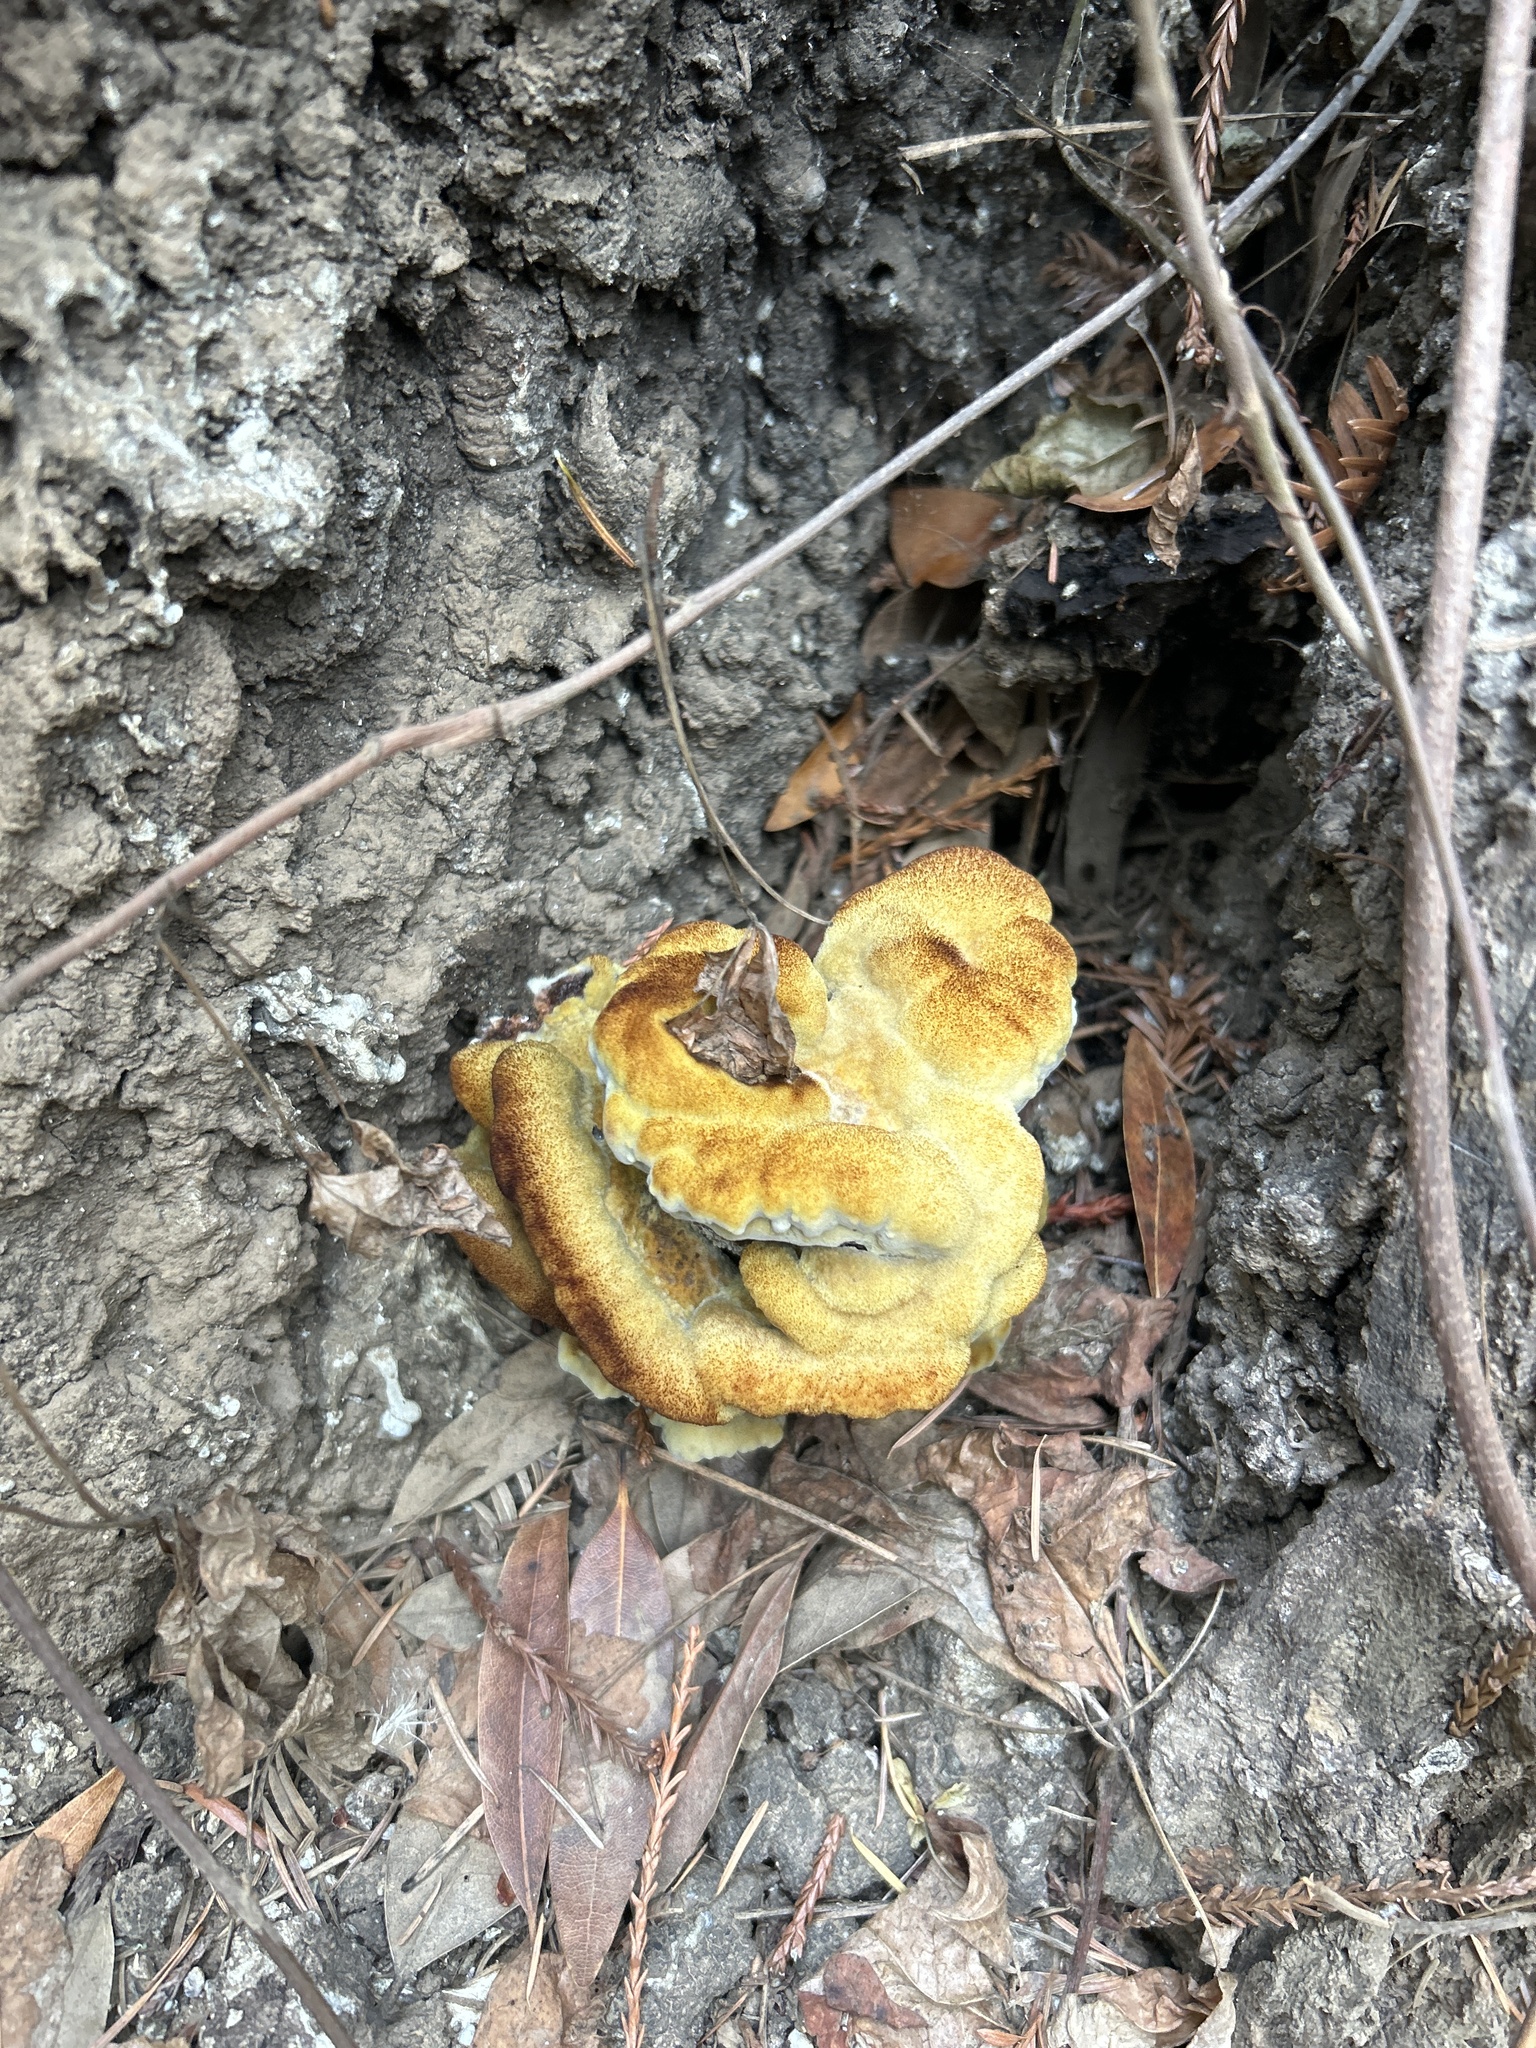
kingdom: Fungi
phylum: Basidiomycota
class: Agaricomycetes
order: Polyporales
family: Laetiporaceae
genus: Phaeolus
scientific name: Phaeolus schweinitzii
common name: Dyer's mazegill
